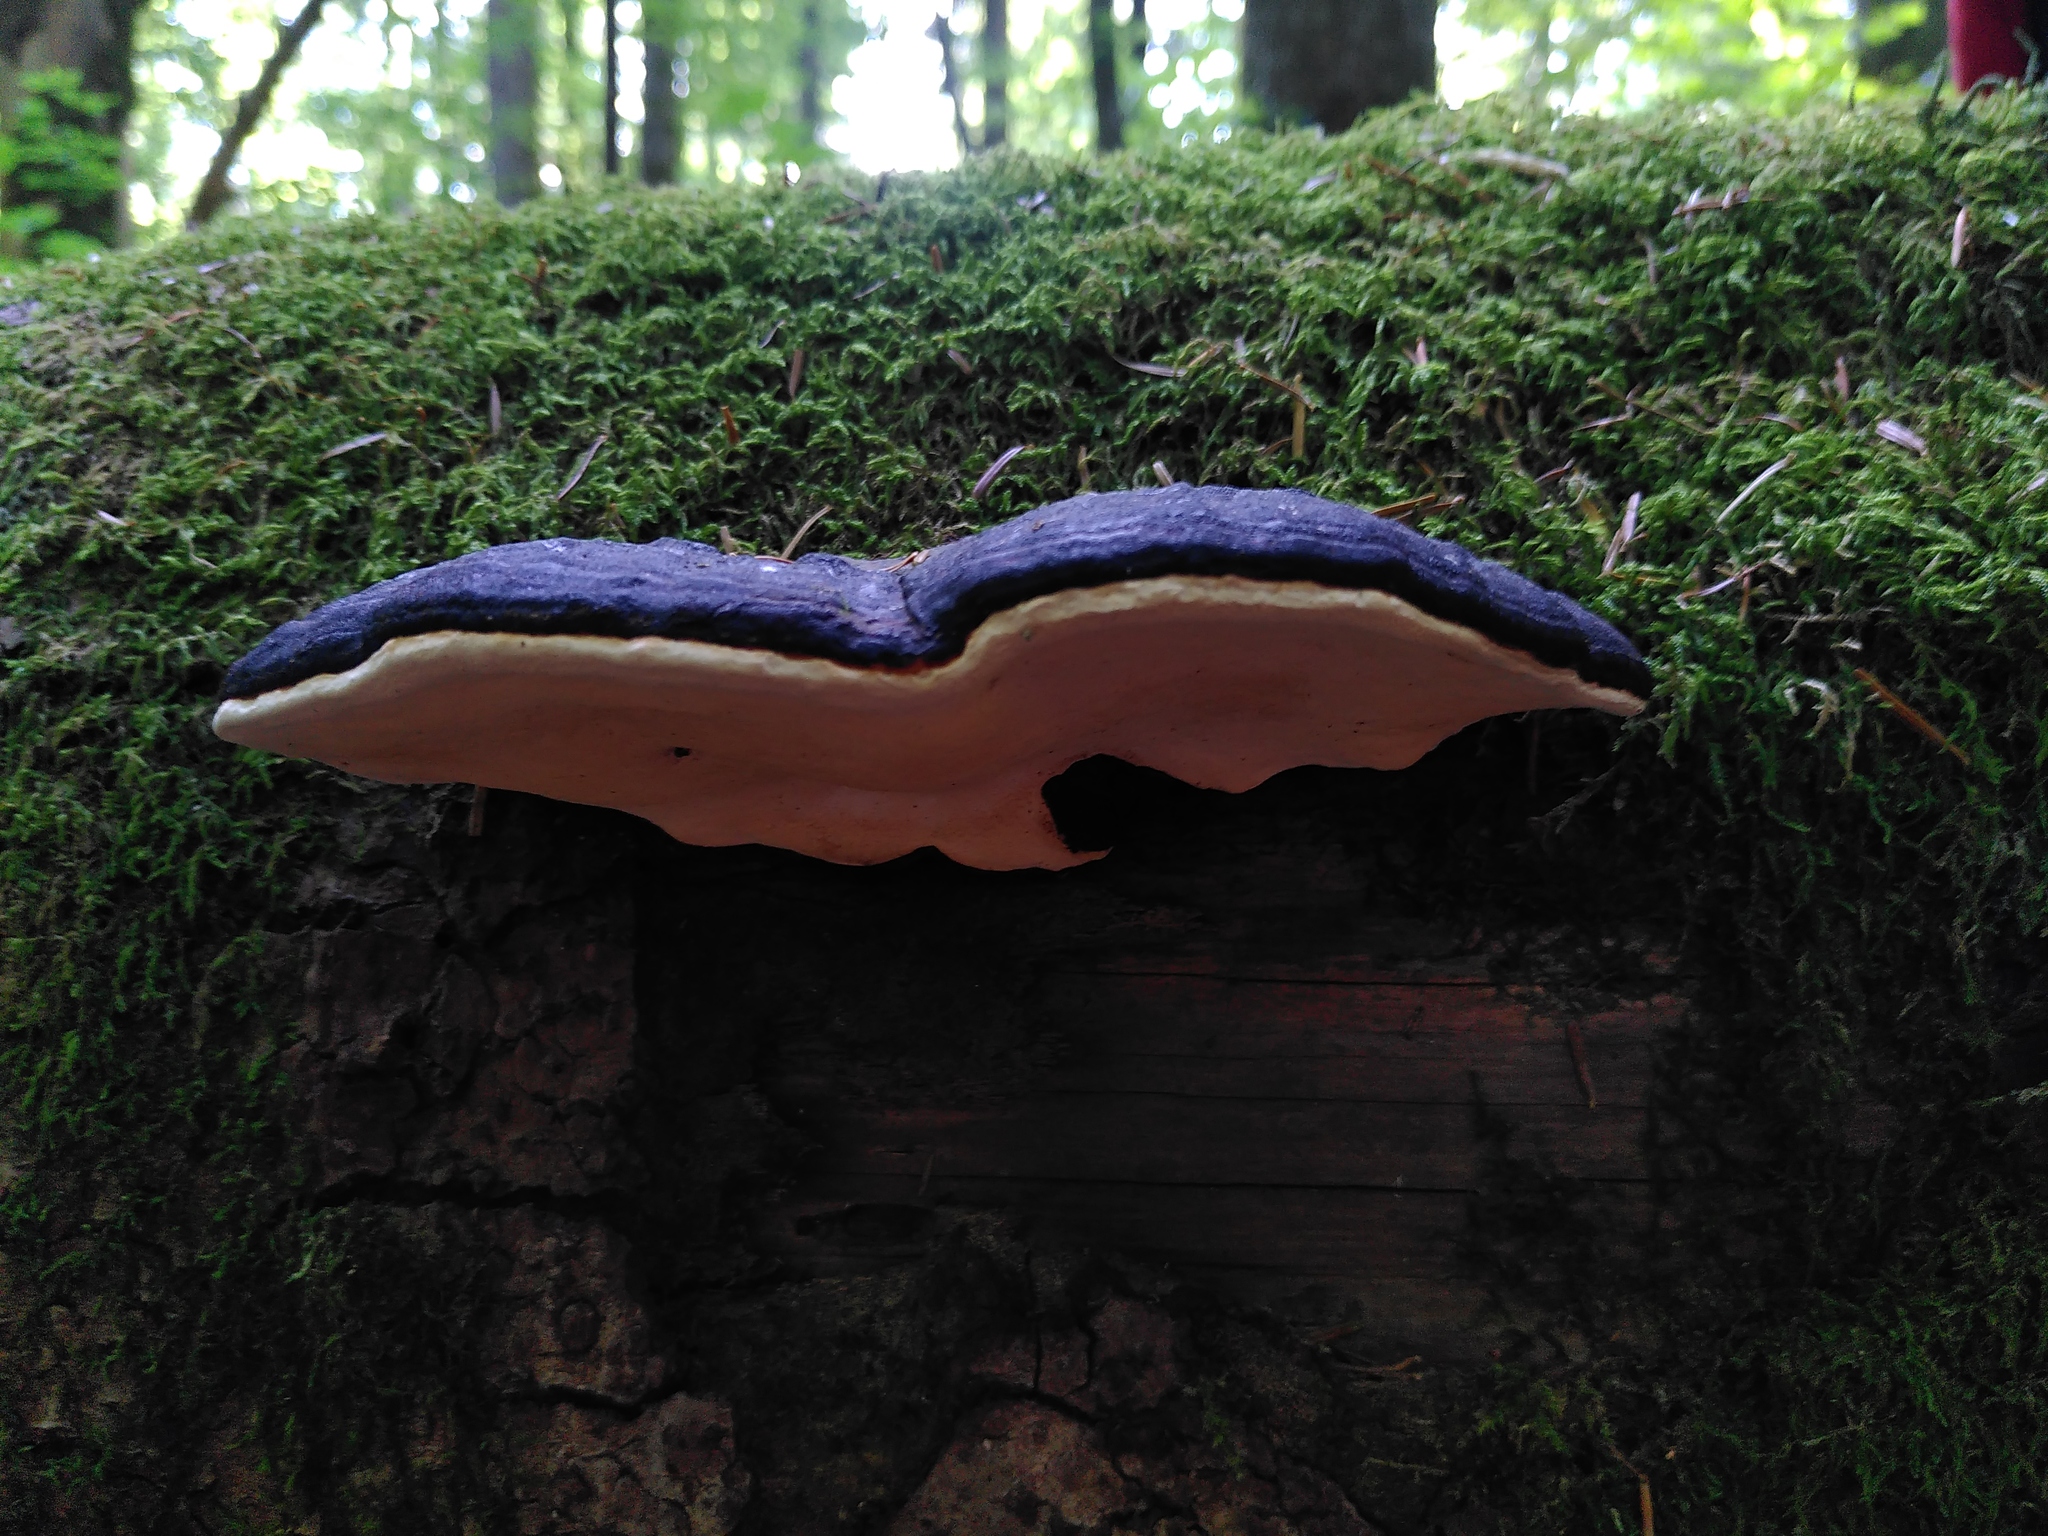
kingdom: Fungi
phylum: Basidiomycota
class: Agaricomycetes
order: Polyporales
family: Fomitopsidaceae
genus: Fomitopsis
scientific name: Fomitopsis pinicola
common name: Red-belted bracket
